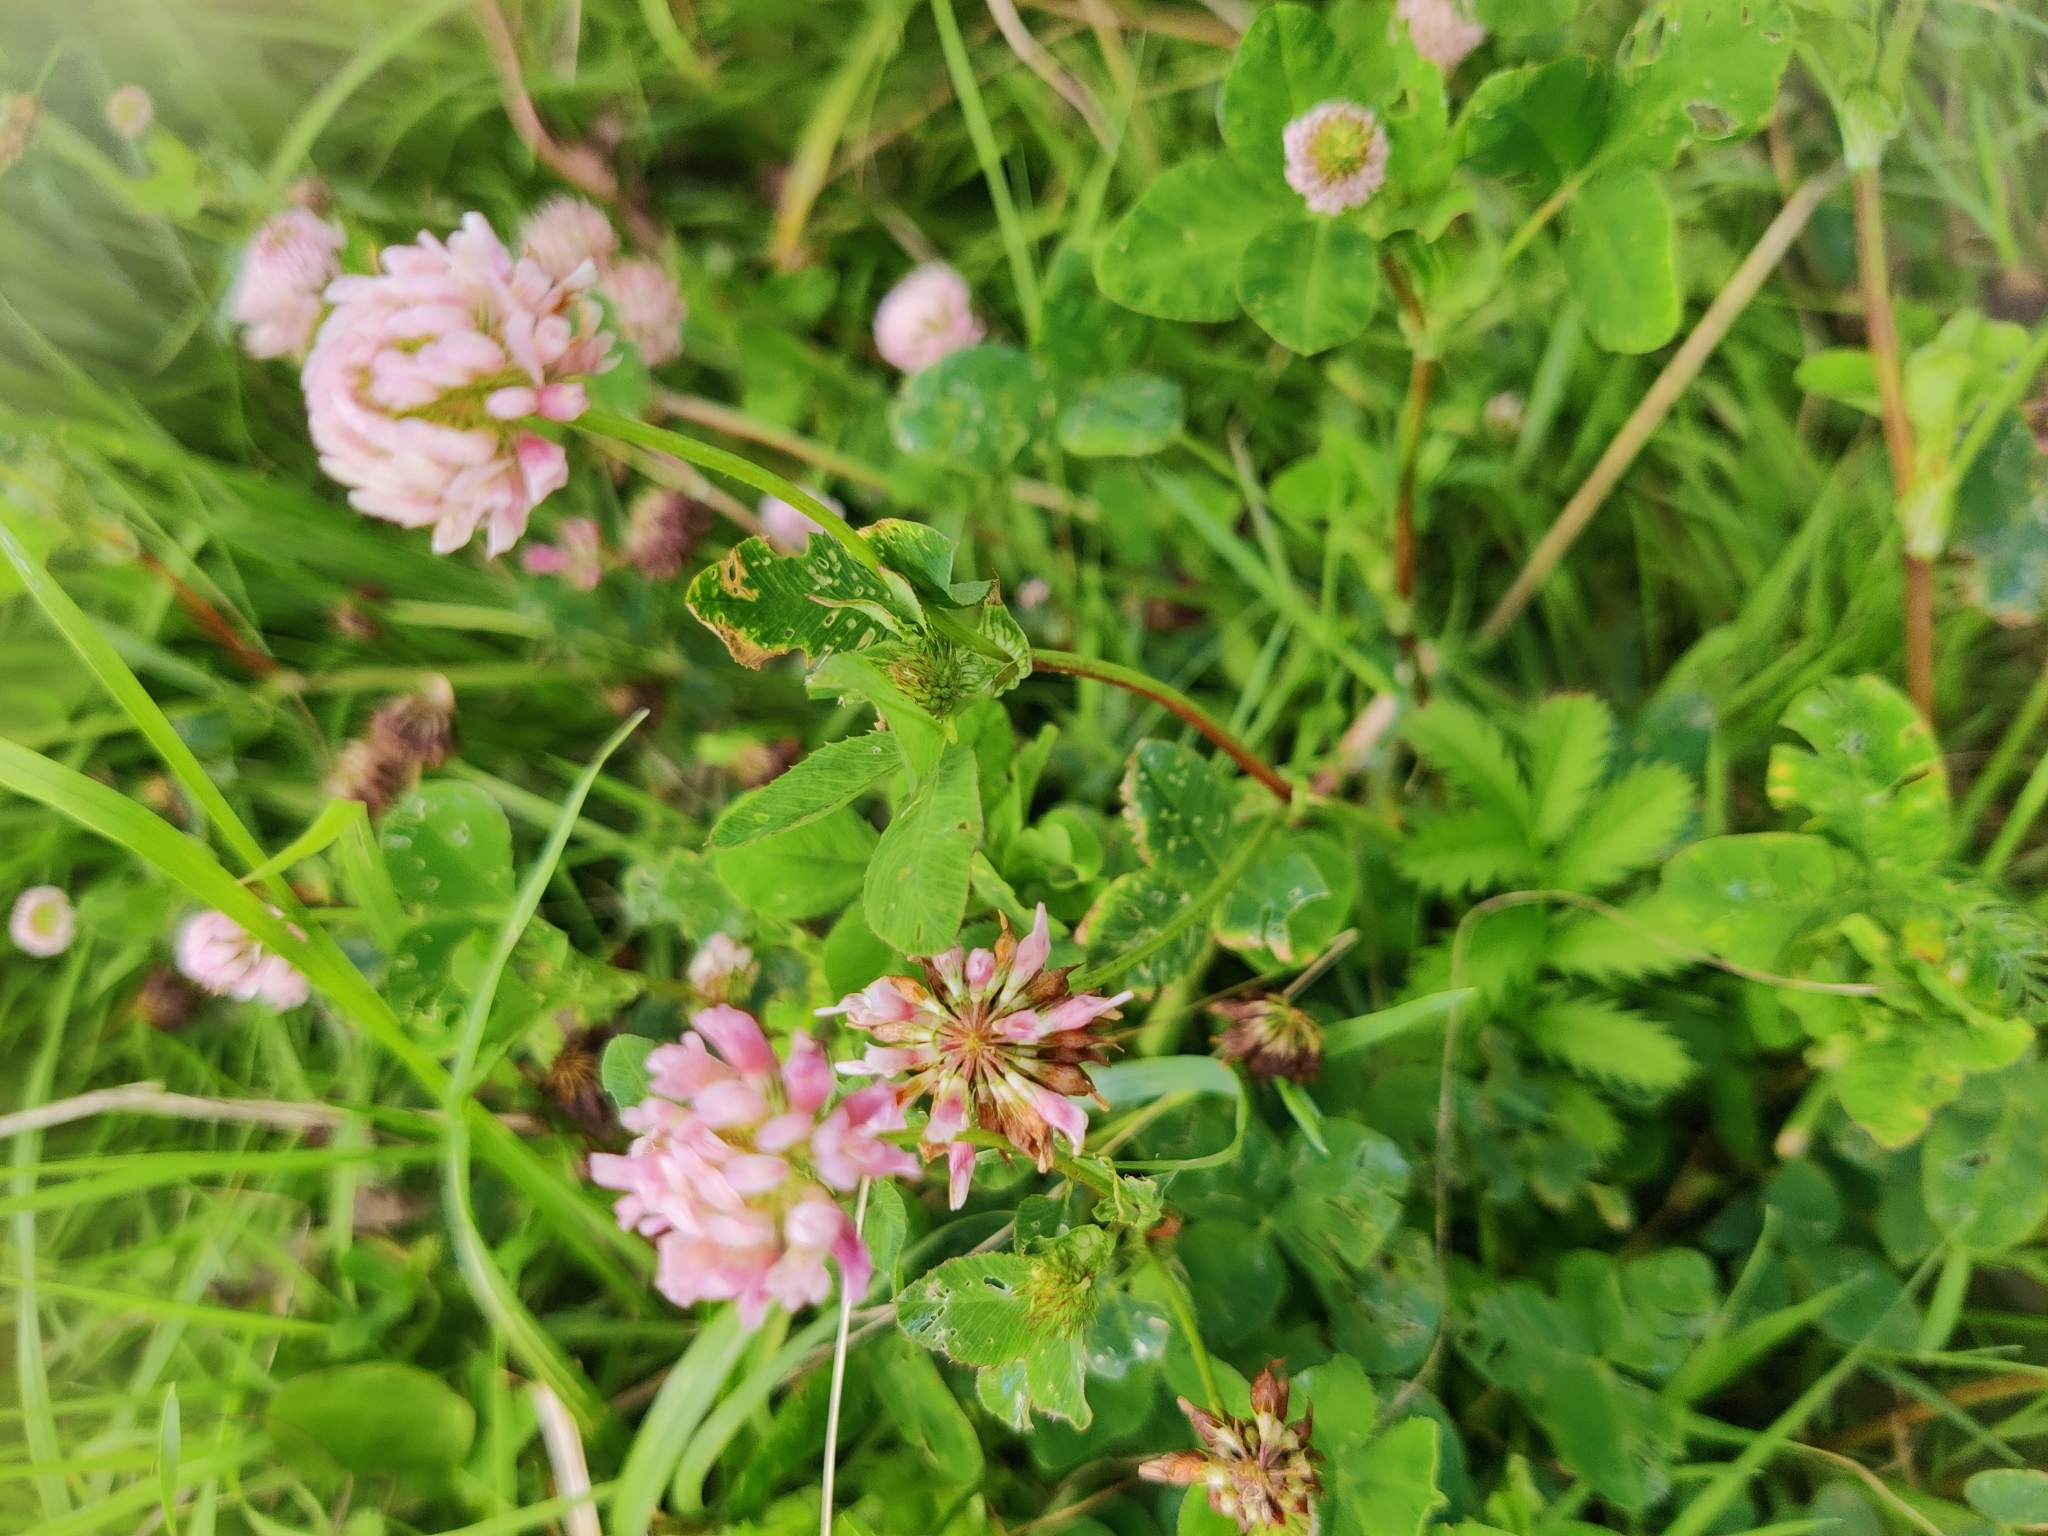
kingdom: Plantae
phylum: Tracheophyta
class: Magnoliopsida
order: Fabales
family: Fabaceae
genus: Trifolium
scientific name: Trifolium hybridum
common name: Alsike clover
